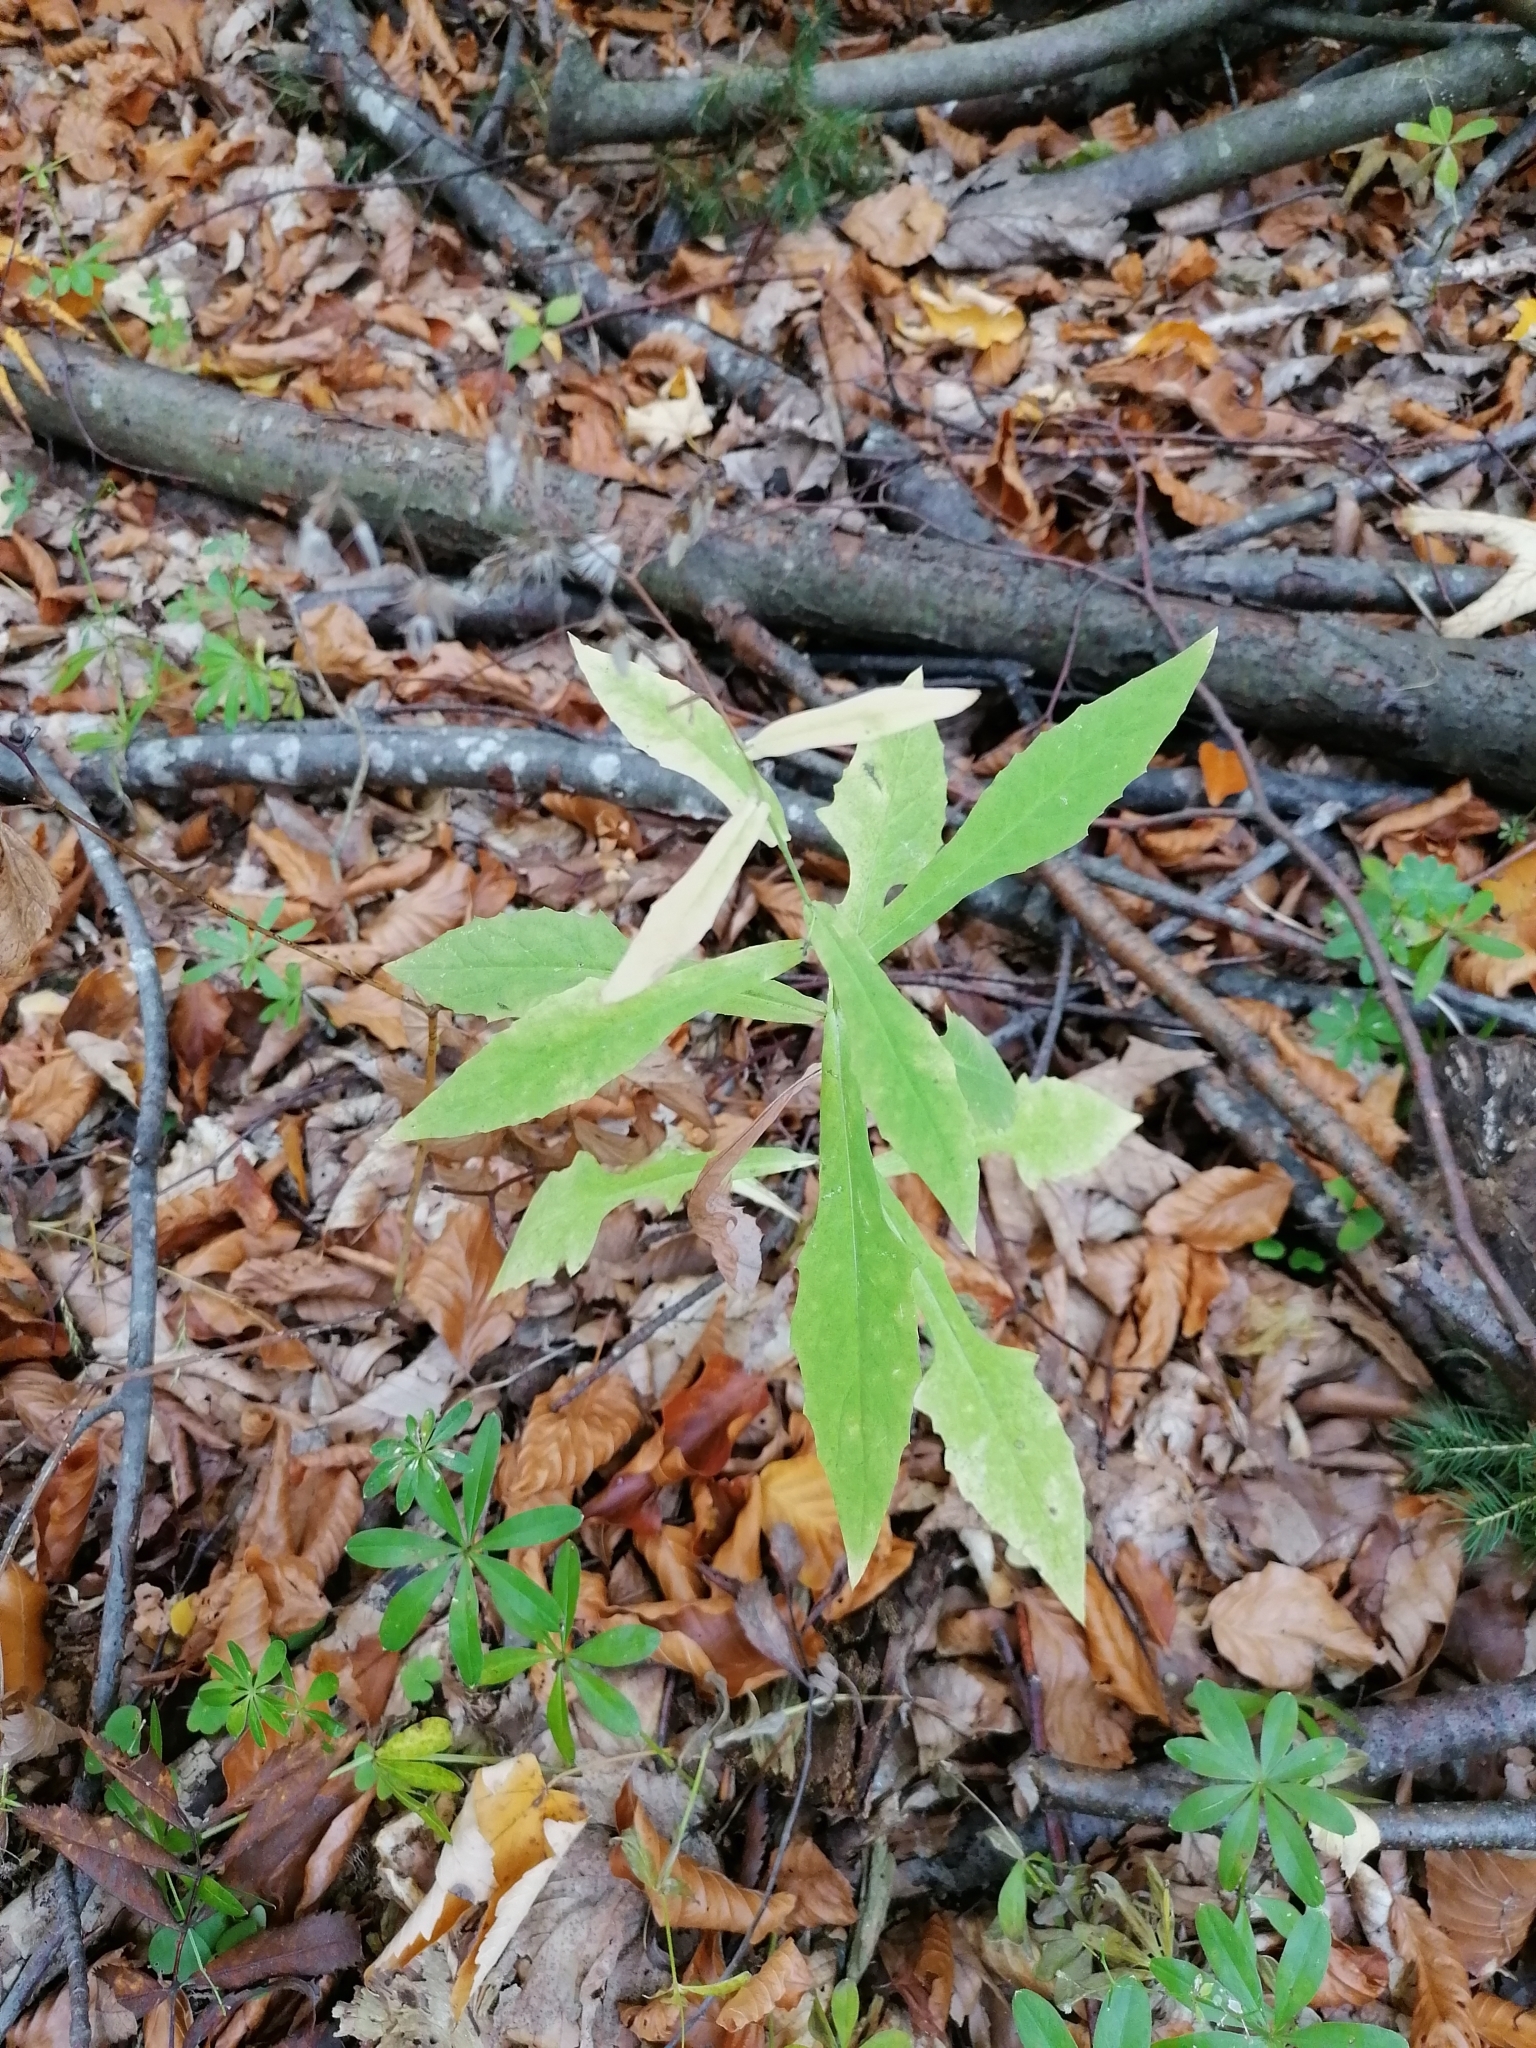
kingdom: Plantae
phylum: Tracheophyta
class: Magnoliopsida
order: Asterales
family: Asteraceae
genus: Prenanthes
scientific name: Prenanthes purpurea
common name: Purple lettuce
